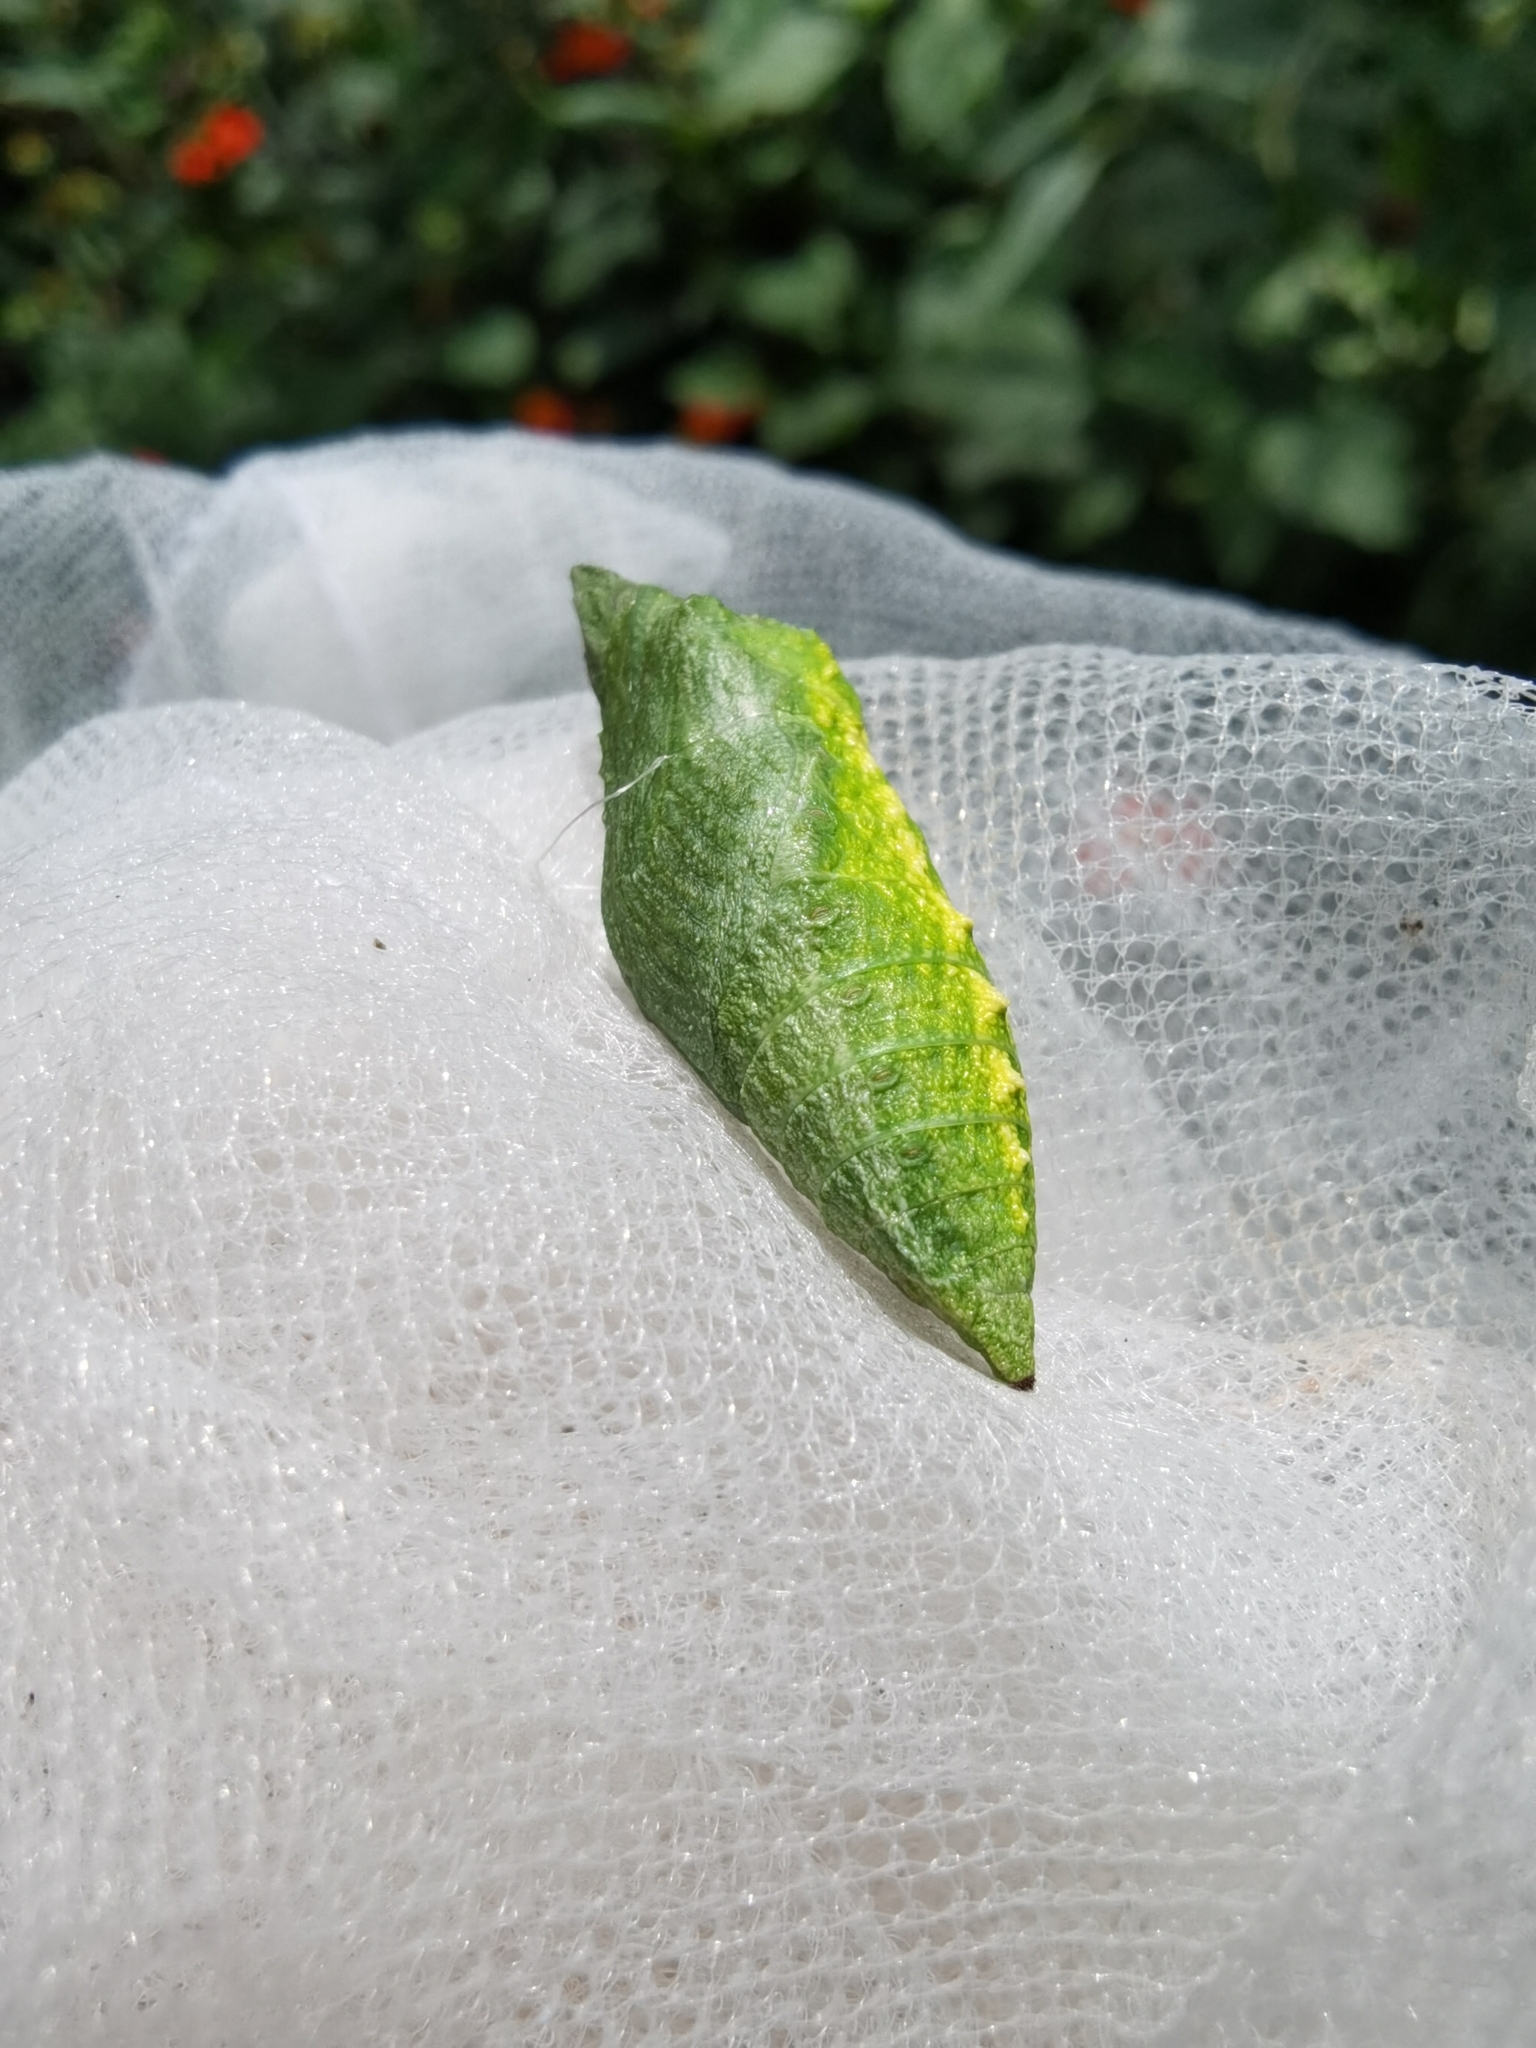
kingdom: Animalia
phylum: Arthropoda
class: Insecta
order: Lepidoptera
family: Papilionidae
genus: Papilio
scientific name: Papilio polyxenes
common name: Black swallowtail
